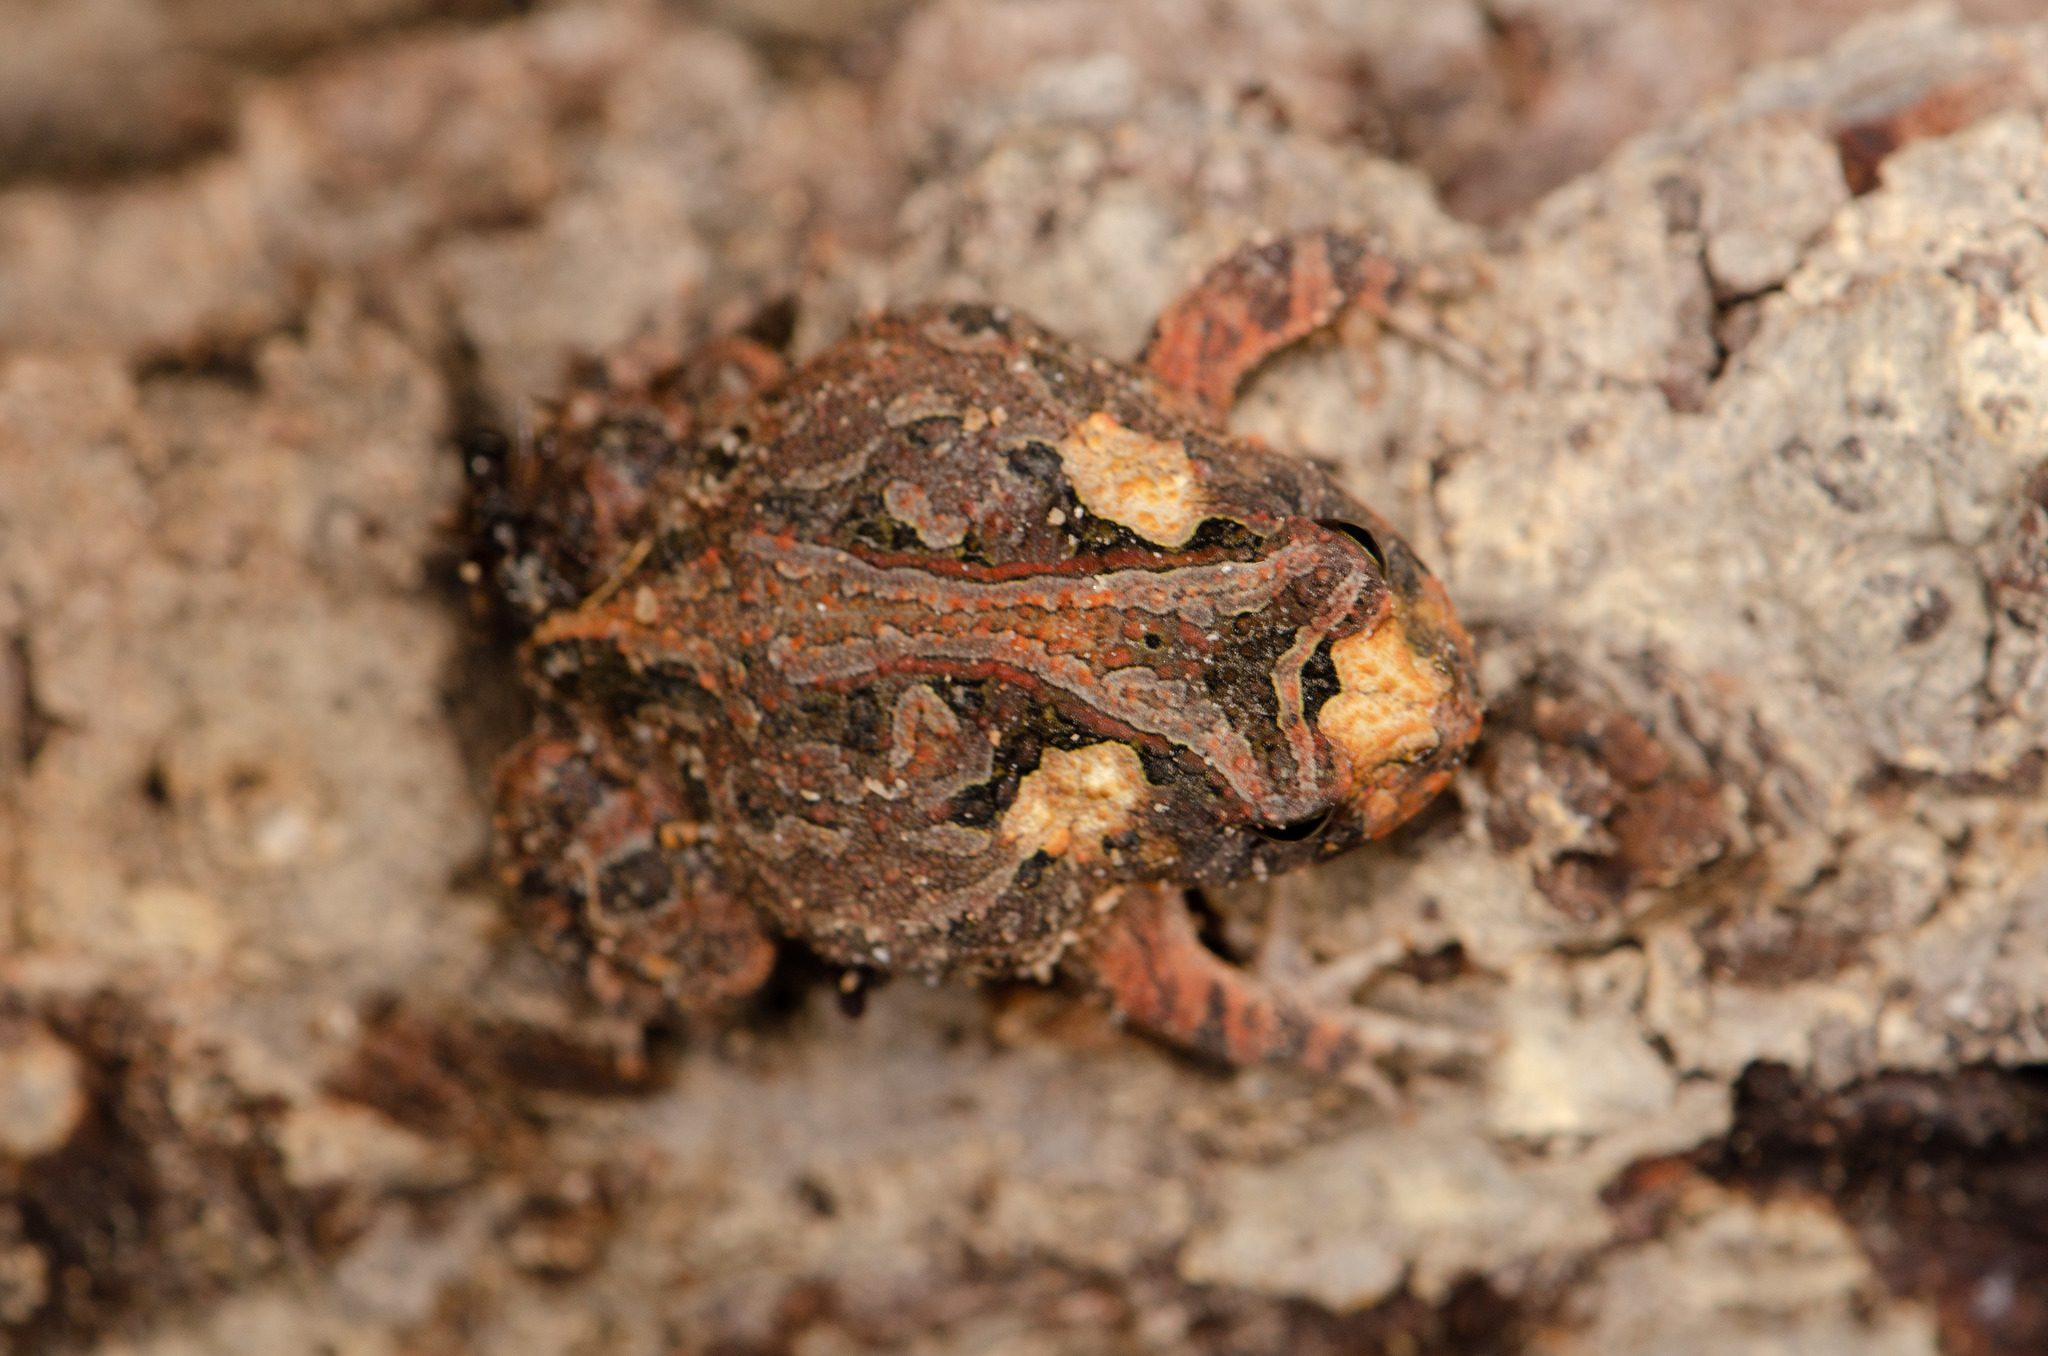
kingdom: Animalia
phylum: Chordata
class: Amphibia
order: Anura
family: Odontophrynidae
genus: Proceratophrys
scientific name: Proceratophrys cristiceps
